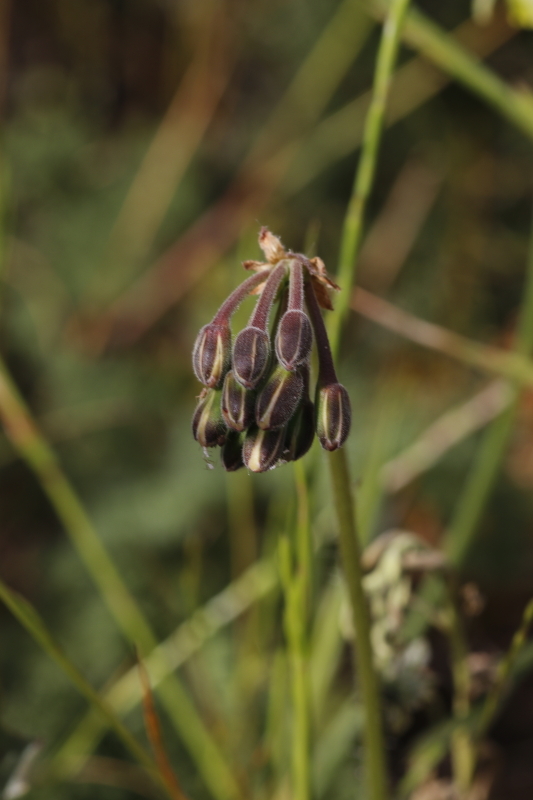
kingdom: Plantae
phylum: Tracheophyta
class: Magnoliopsida
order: Geraniales
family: Geraniaceae
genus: Pelargonium
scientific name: Pelargonium triste
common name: Night-scent pelargonium
